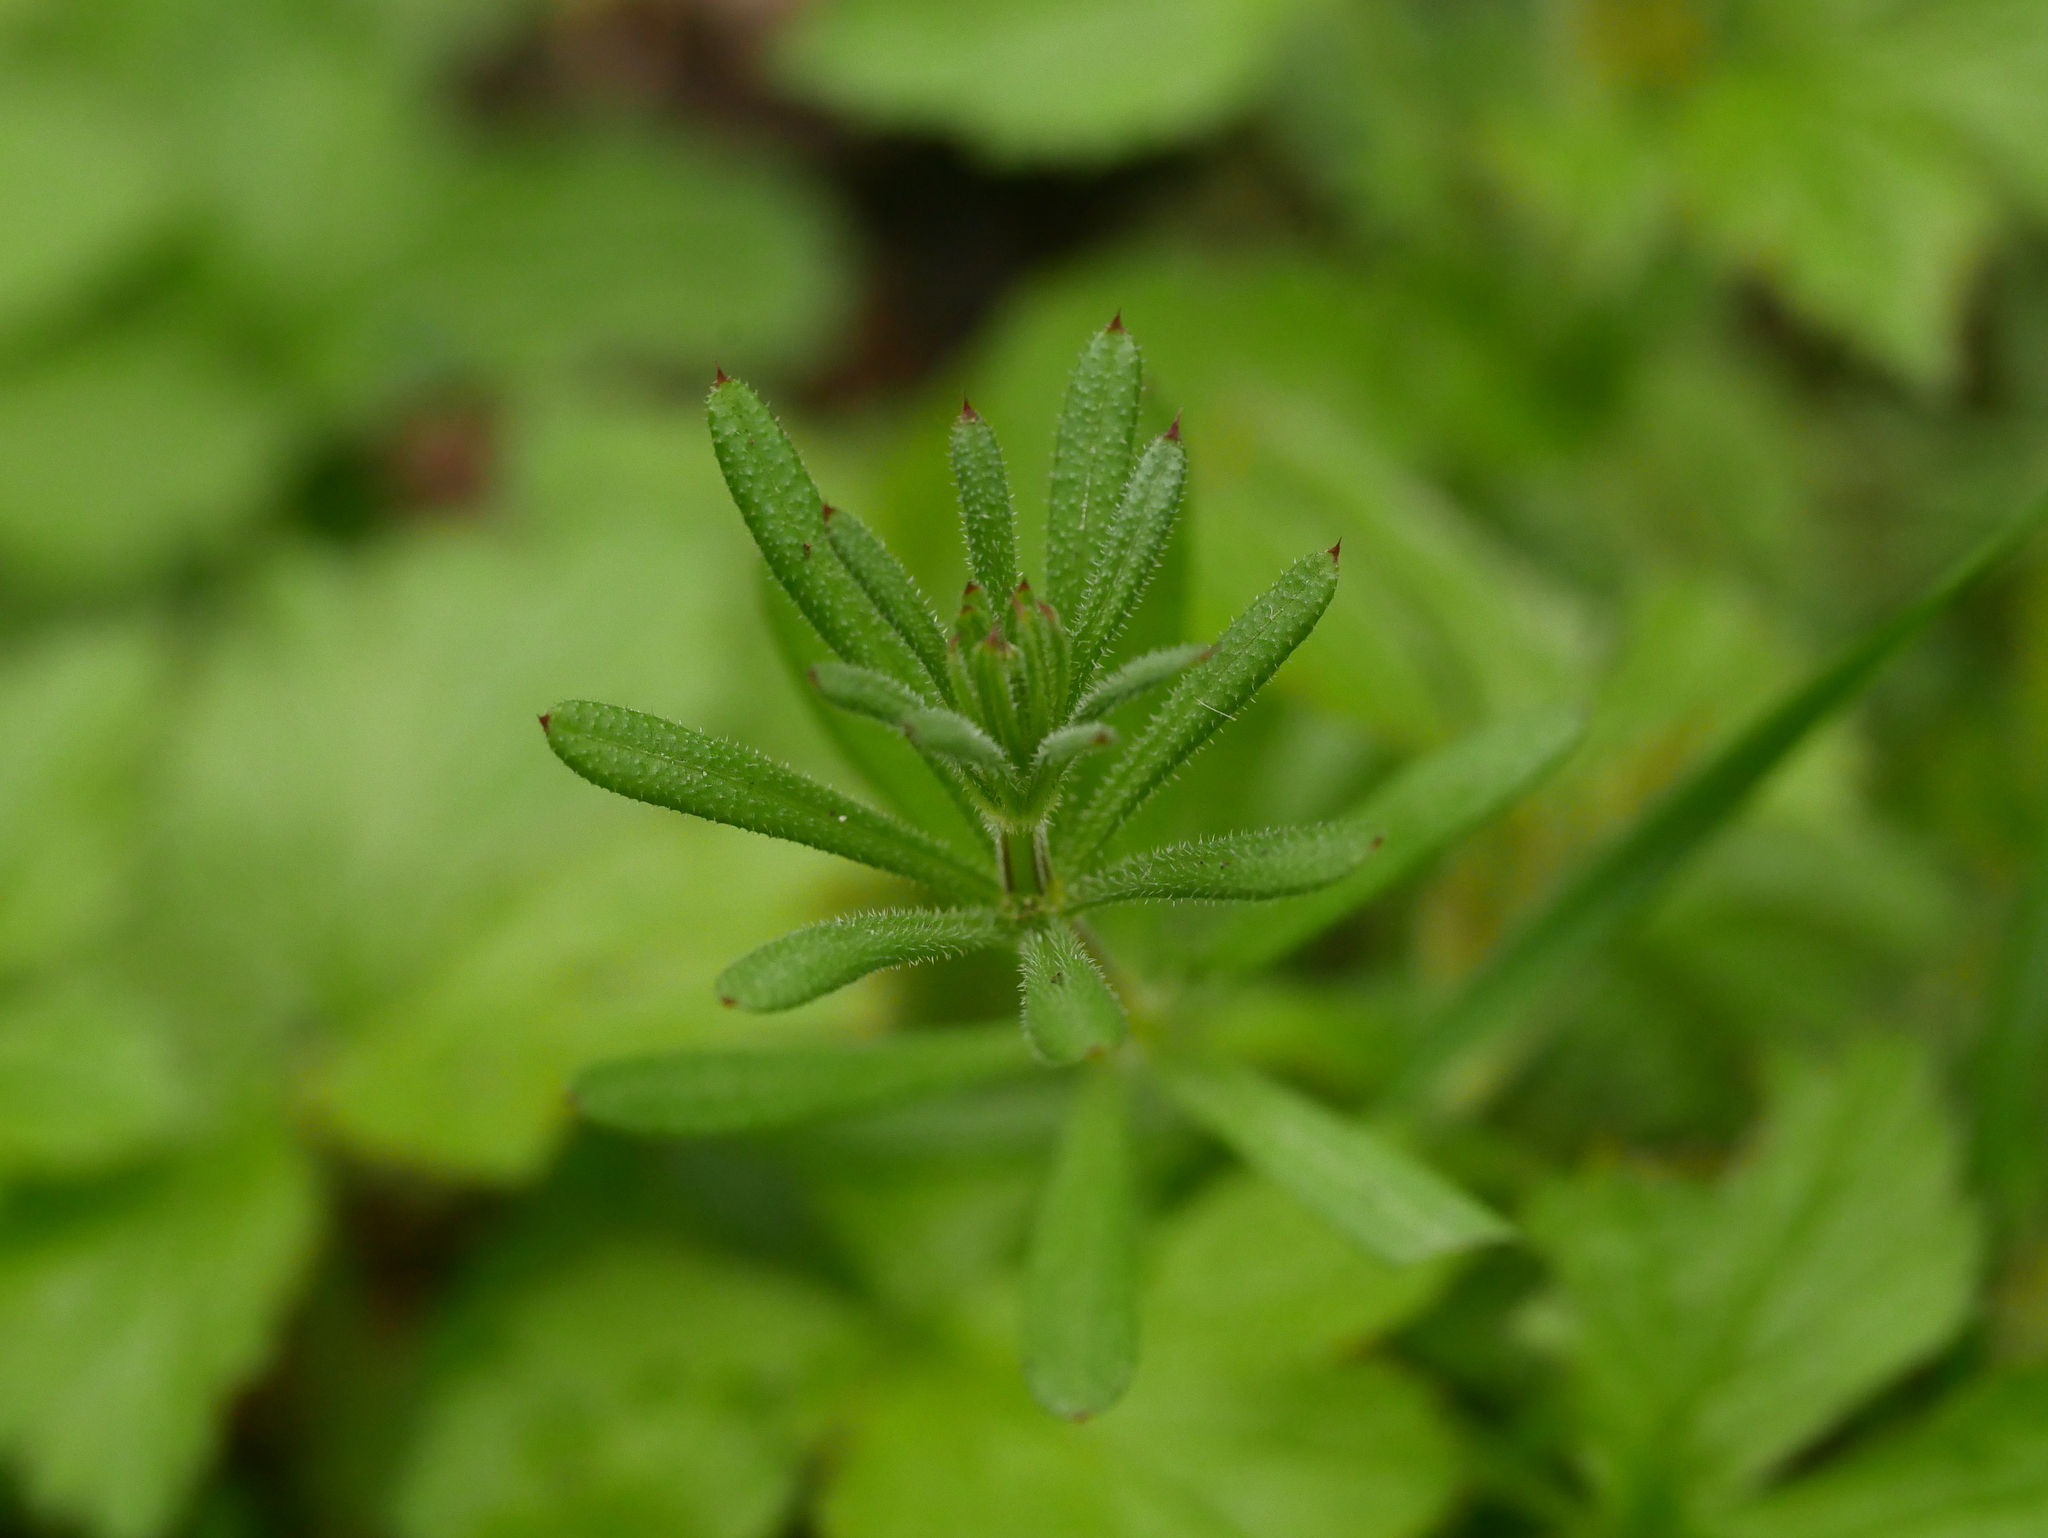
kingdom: Plantae
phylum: Tracheophyta
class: Magnoliopsida
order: Gentianales
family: Rubiaceae
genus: Galium
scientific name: Galium aparine
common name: Cleavers
